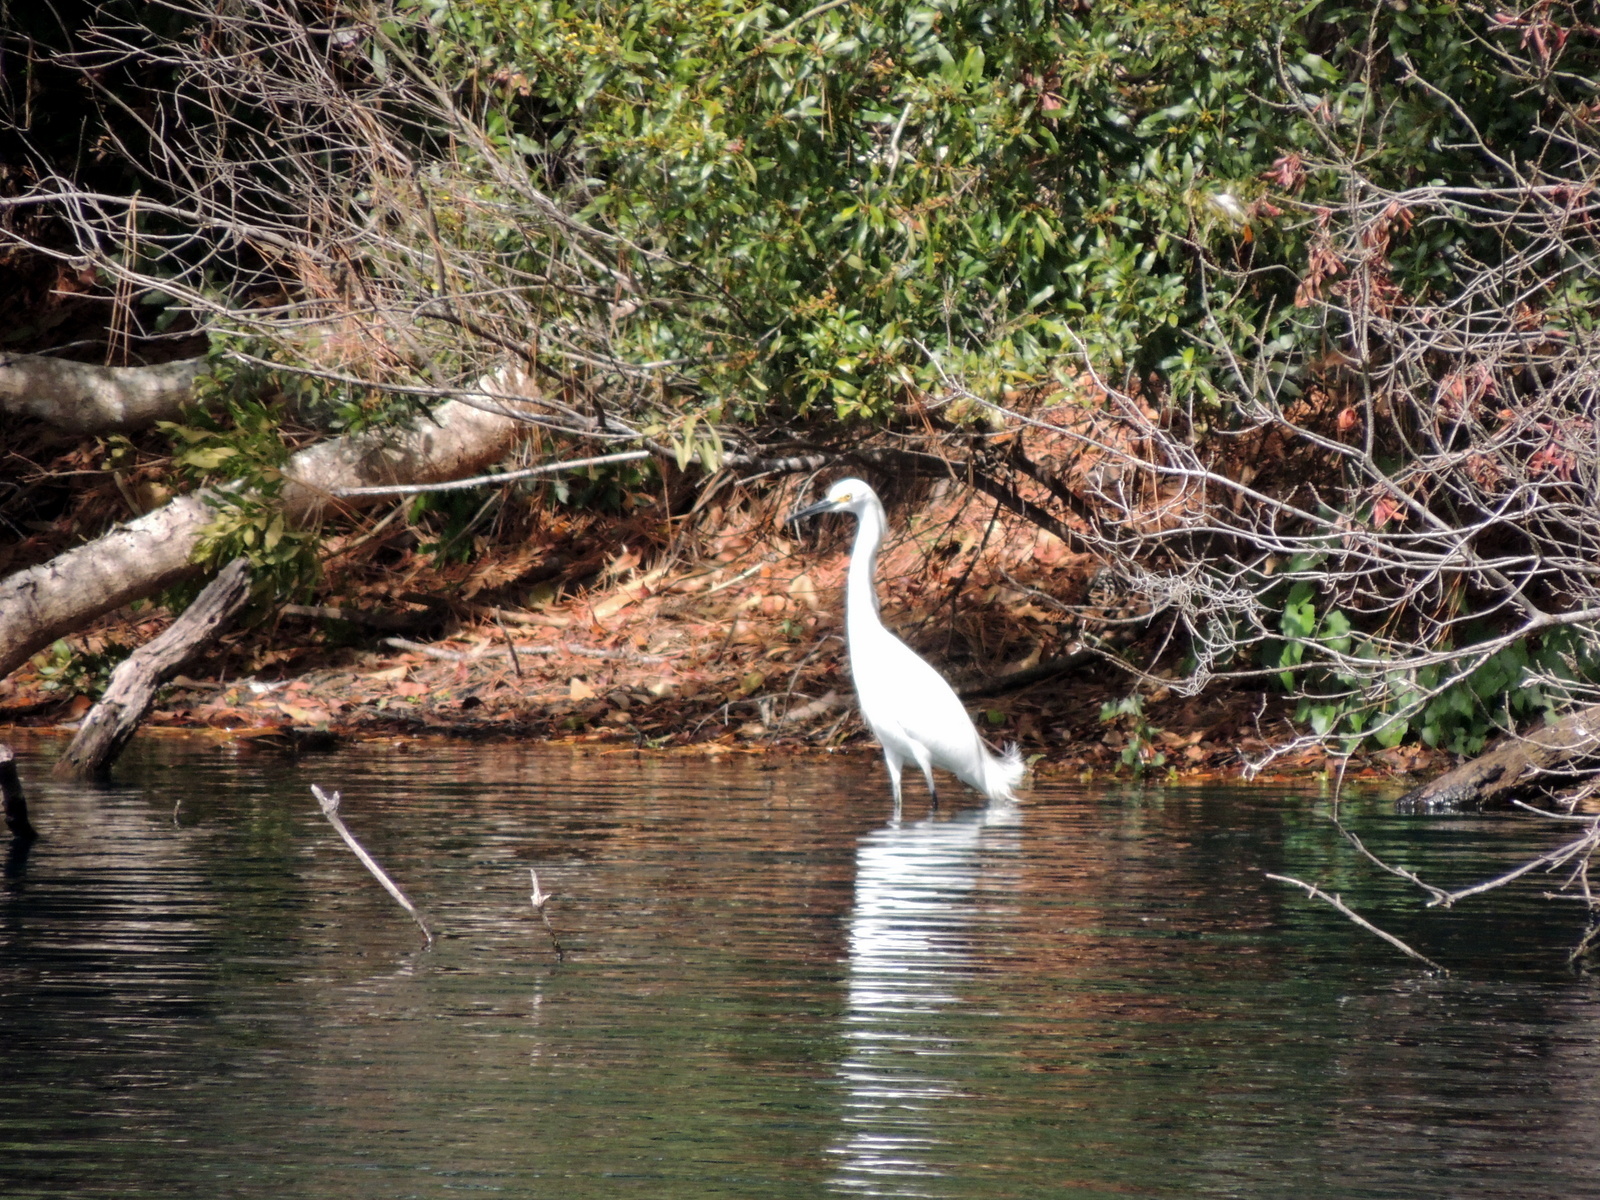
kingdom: Animalia
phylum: Chordata
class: Aves
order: Pelecaniformes
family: Ardeidae
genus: Egretta
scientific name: Egretta thula
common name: Snowy egret
